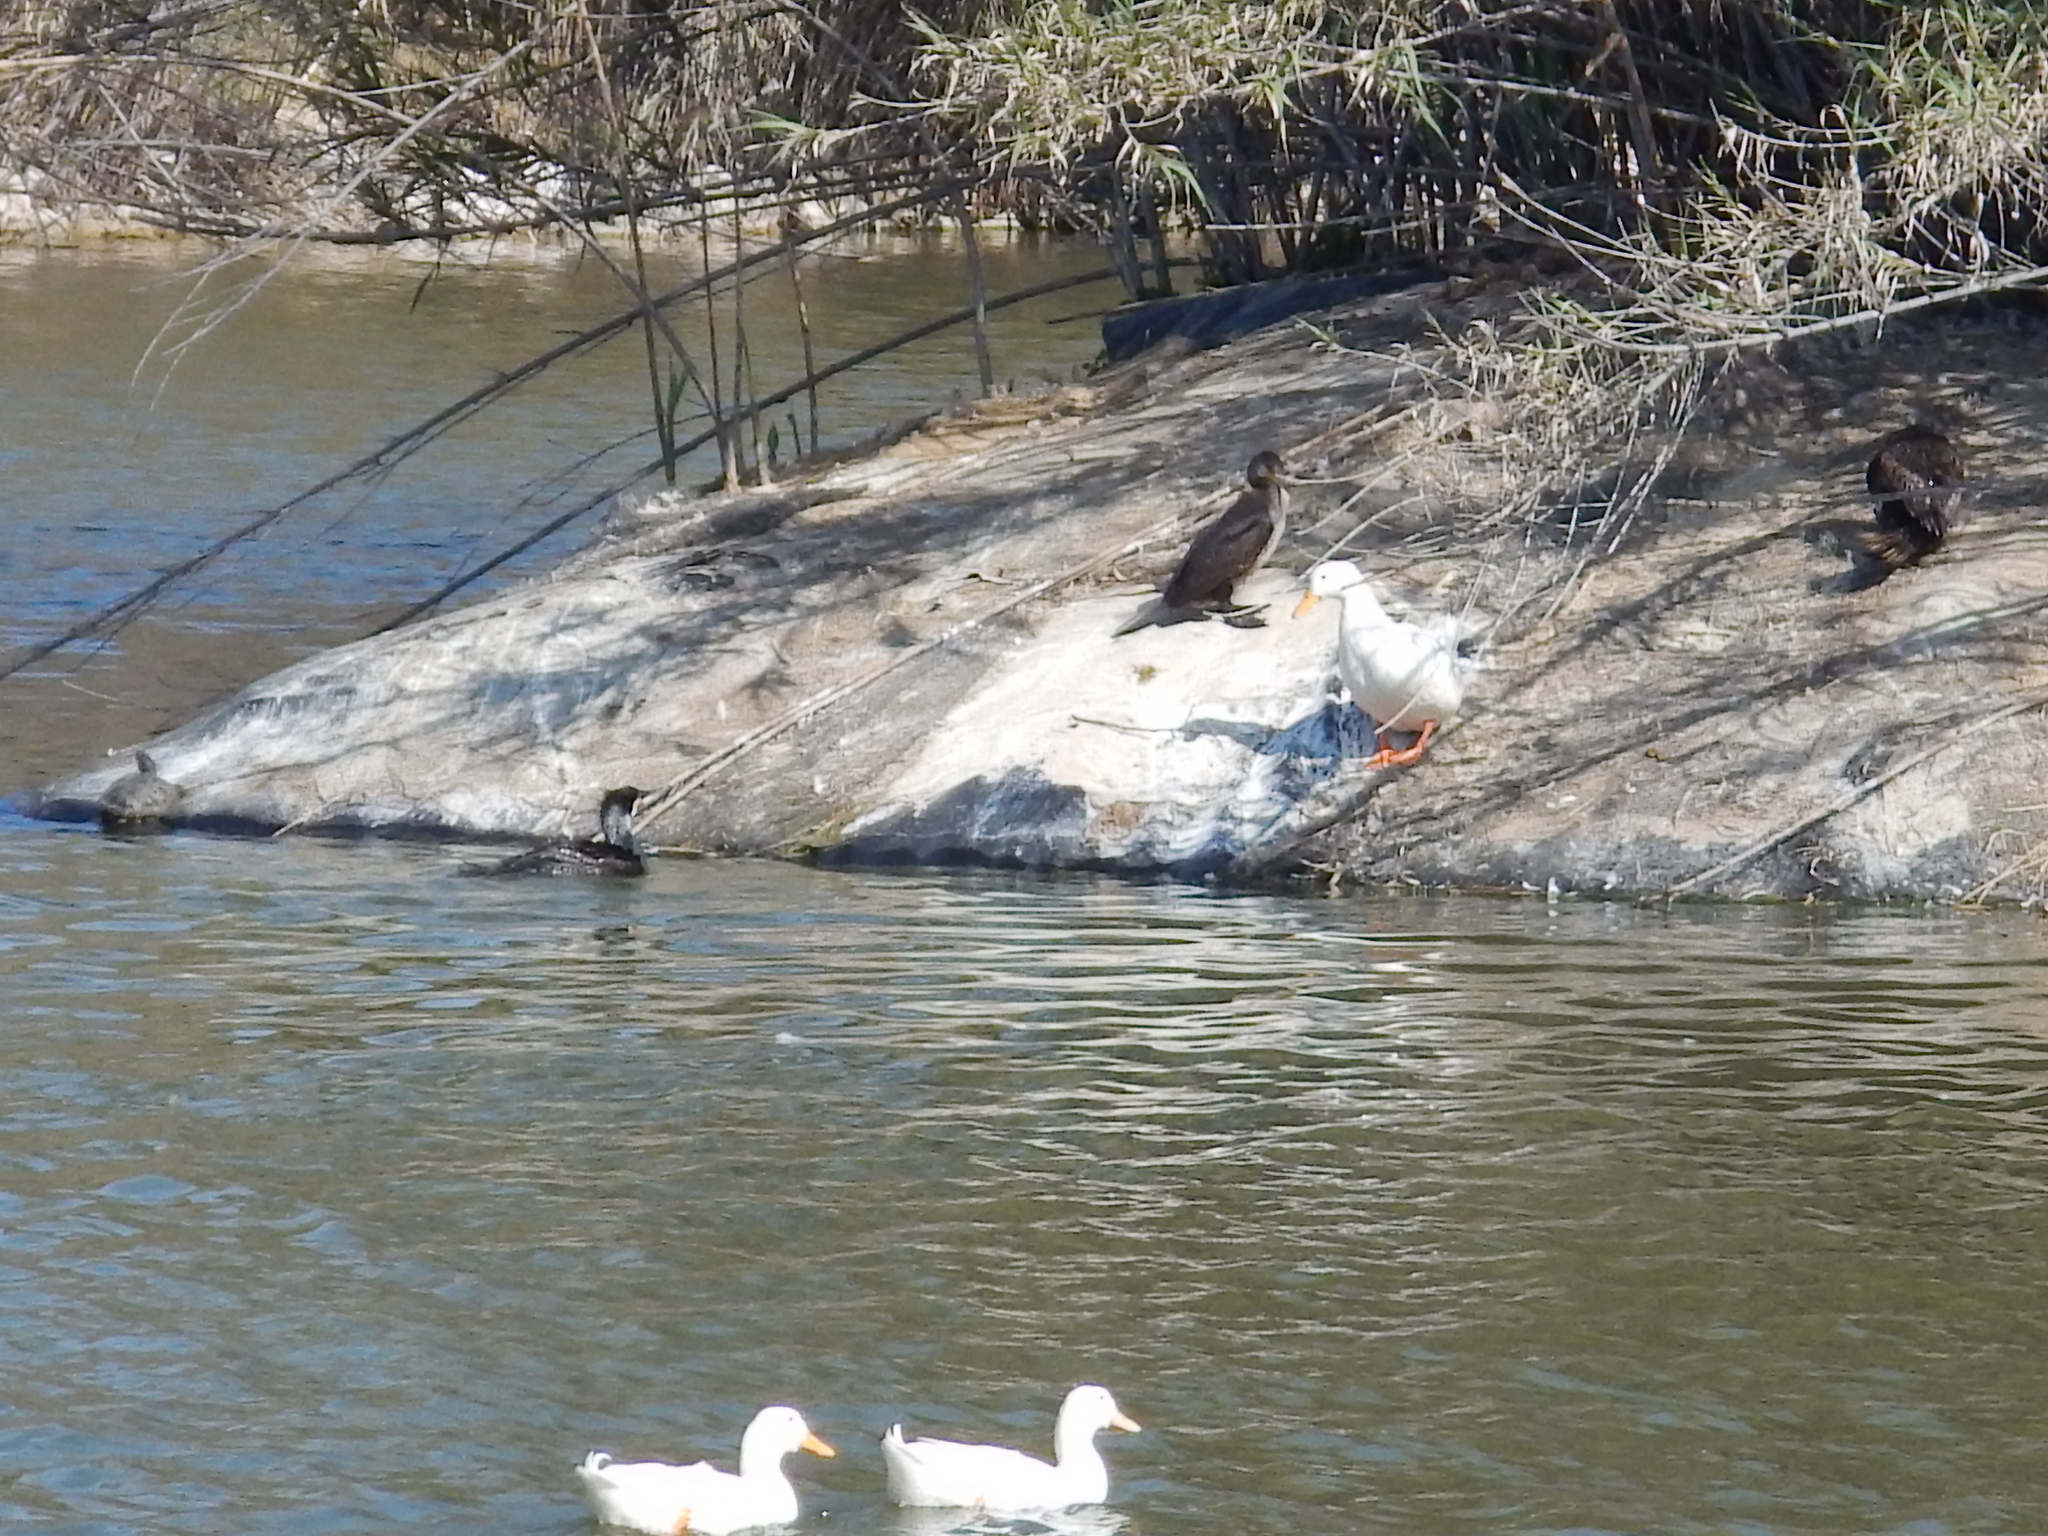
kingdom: Animalia
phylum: Chordata
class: Aves
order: Suliformes
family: Phalacrocoracidae
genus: Phalacrocorax
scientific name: Phalacrocorax carbo
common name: Great cormorant
